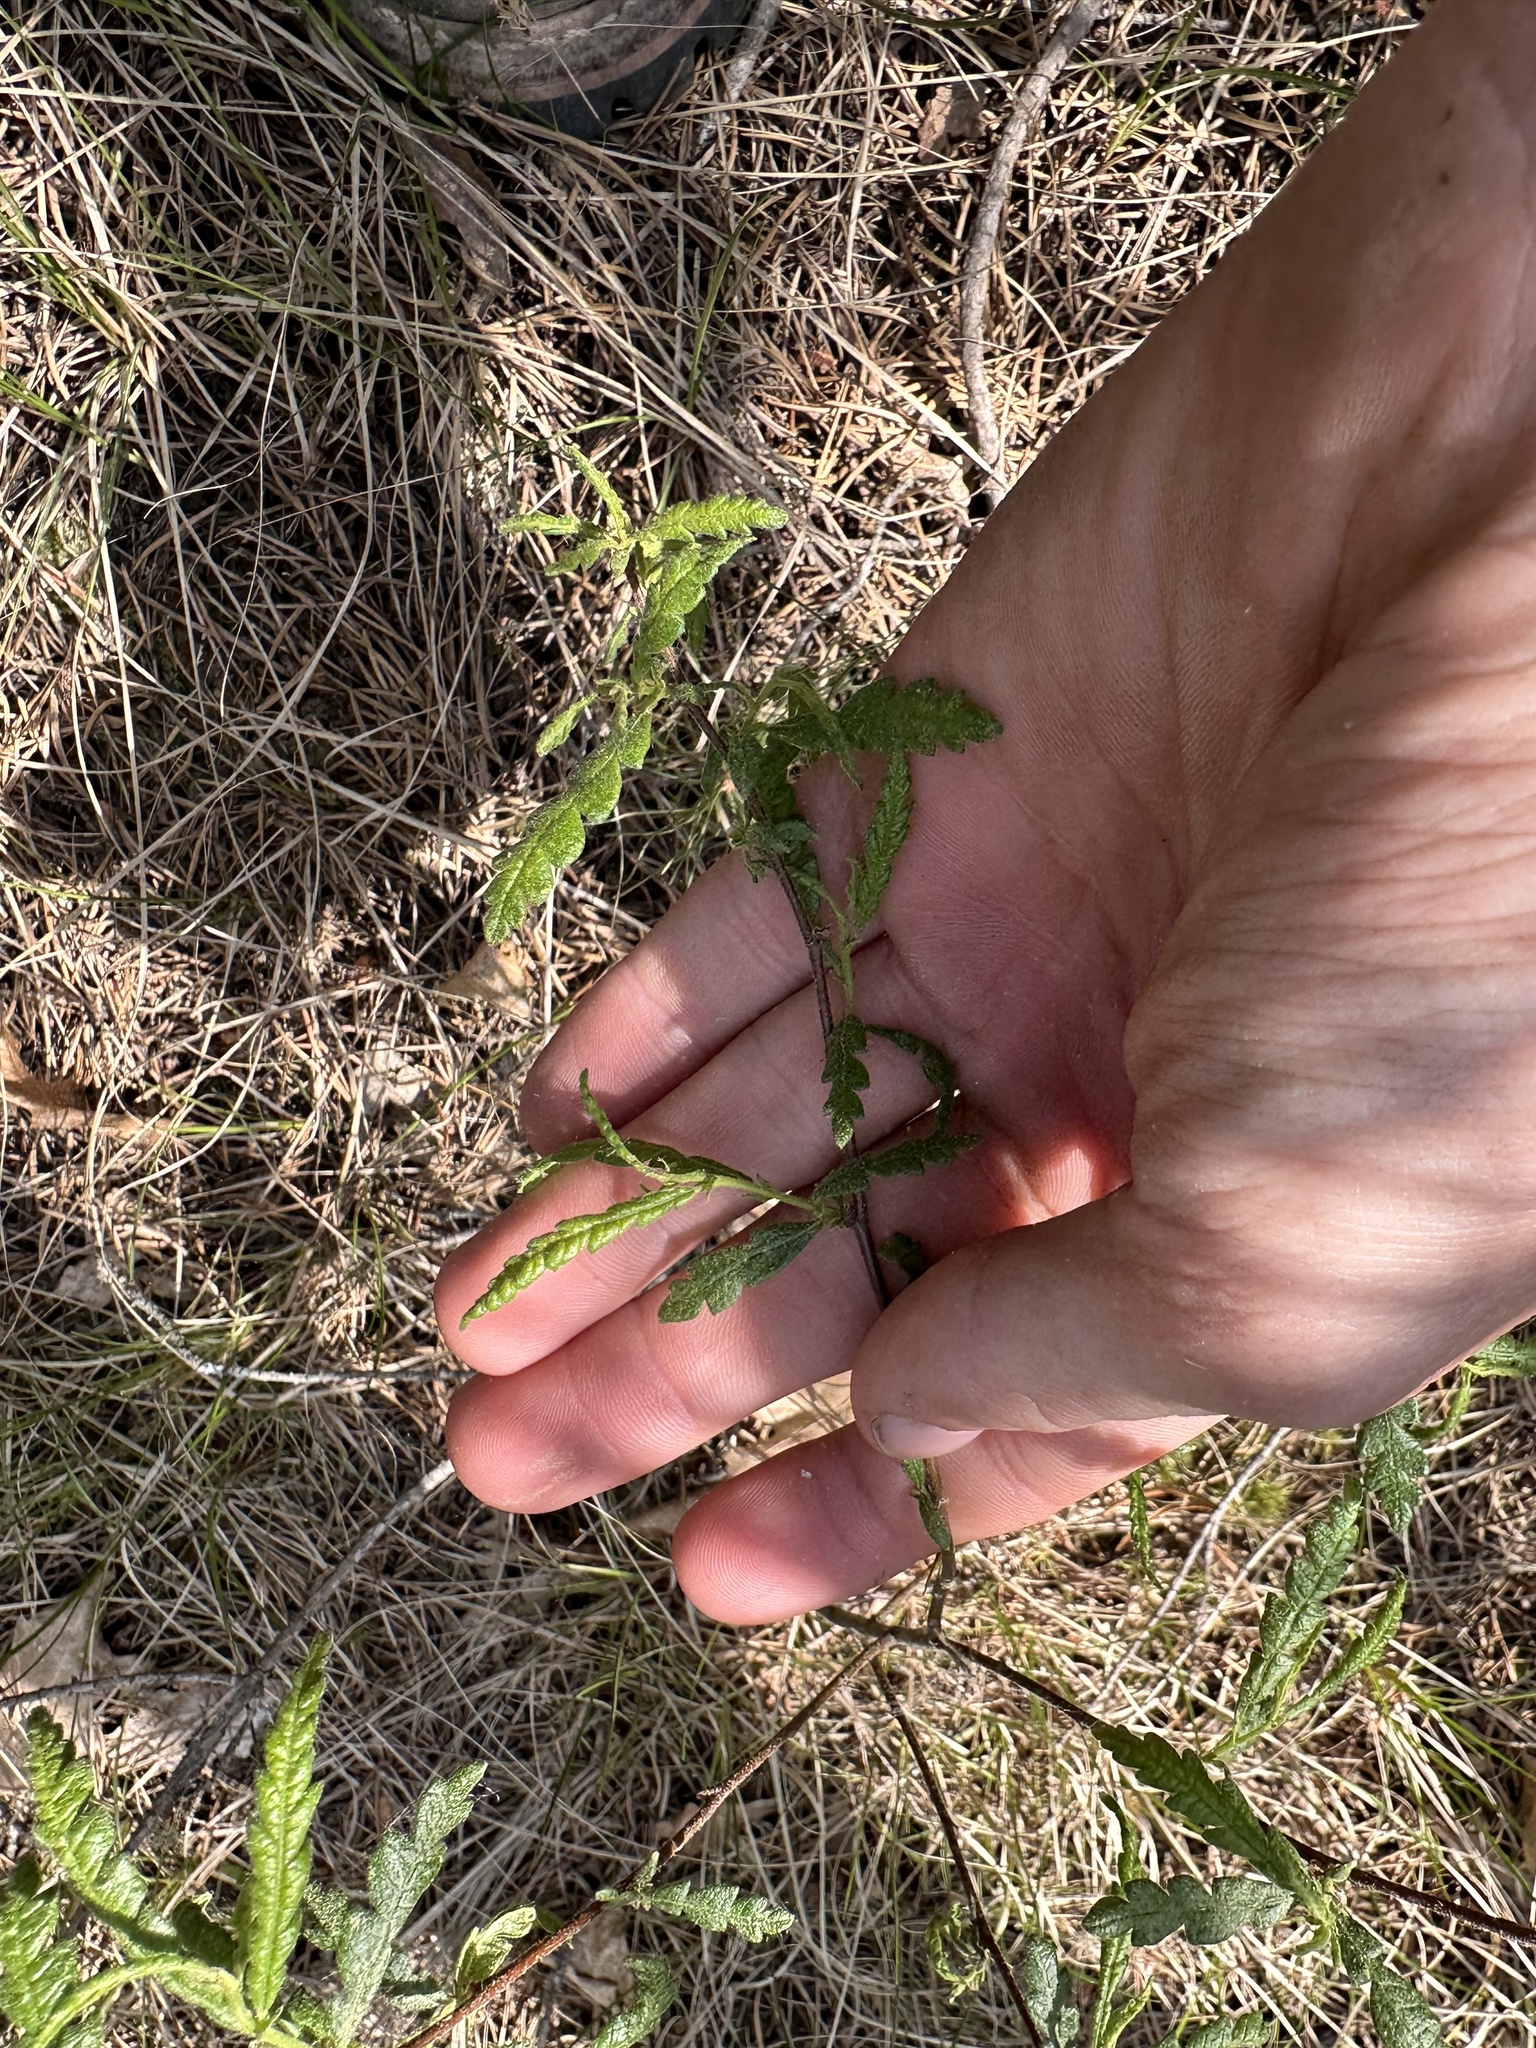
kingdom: Plantae
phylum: Tracheophyta
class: Magnoliopsida
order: Fagales
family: Myricaceae
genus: Comptonia
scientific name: Comptonia peregrina
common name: Sweet-fern
